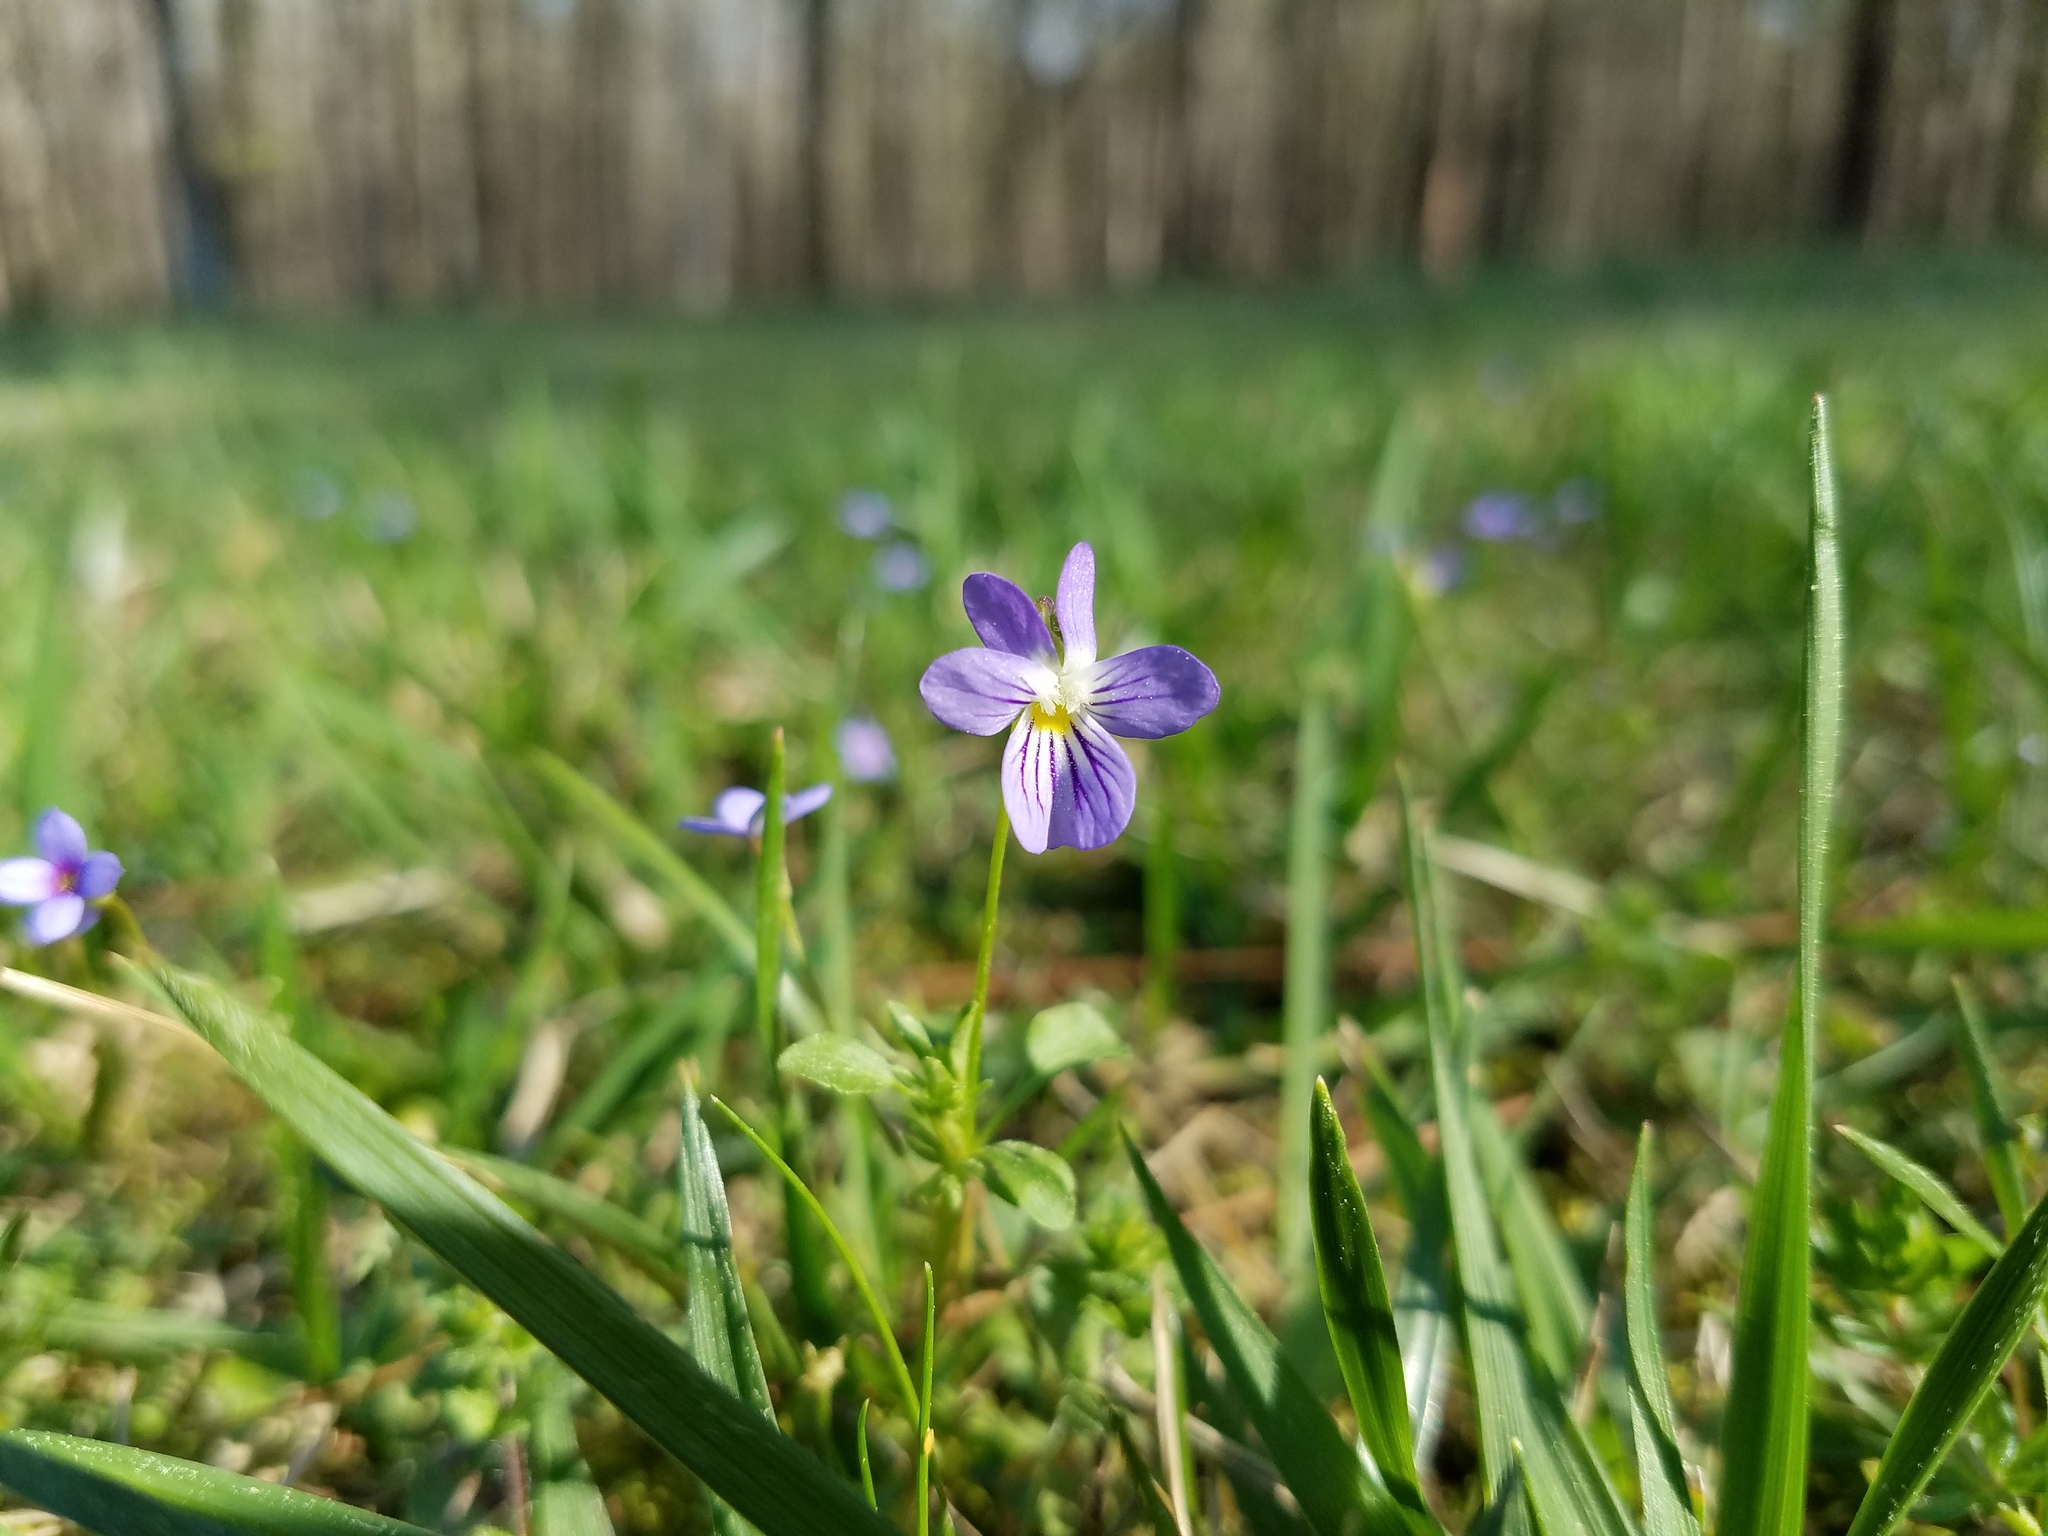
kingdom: Plantae
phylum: Tracheophyta
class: Magnoliopsida
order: Malpighiales
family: Violaceae
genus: Viola
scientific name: Viola rafinesquei
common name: American field pansy
